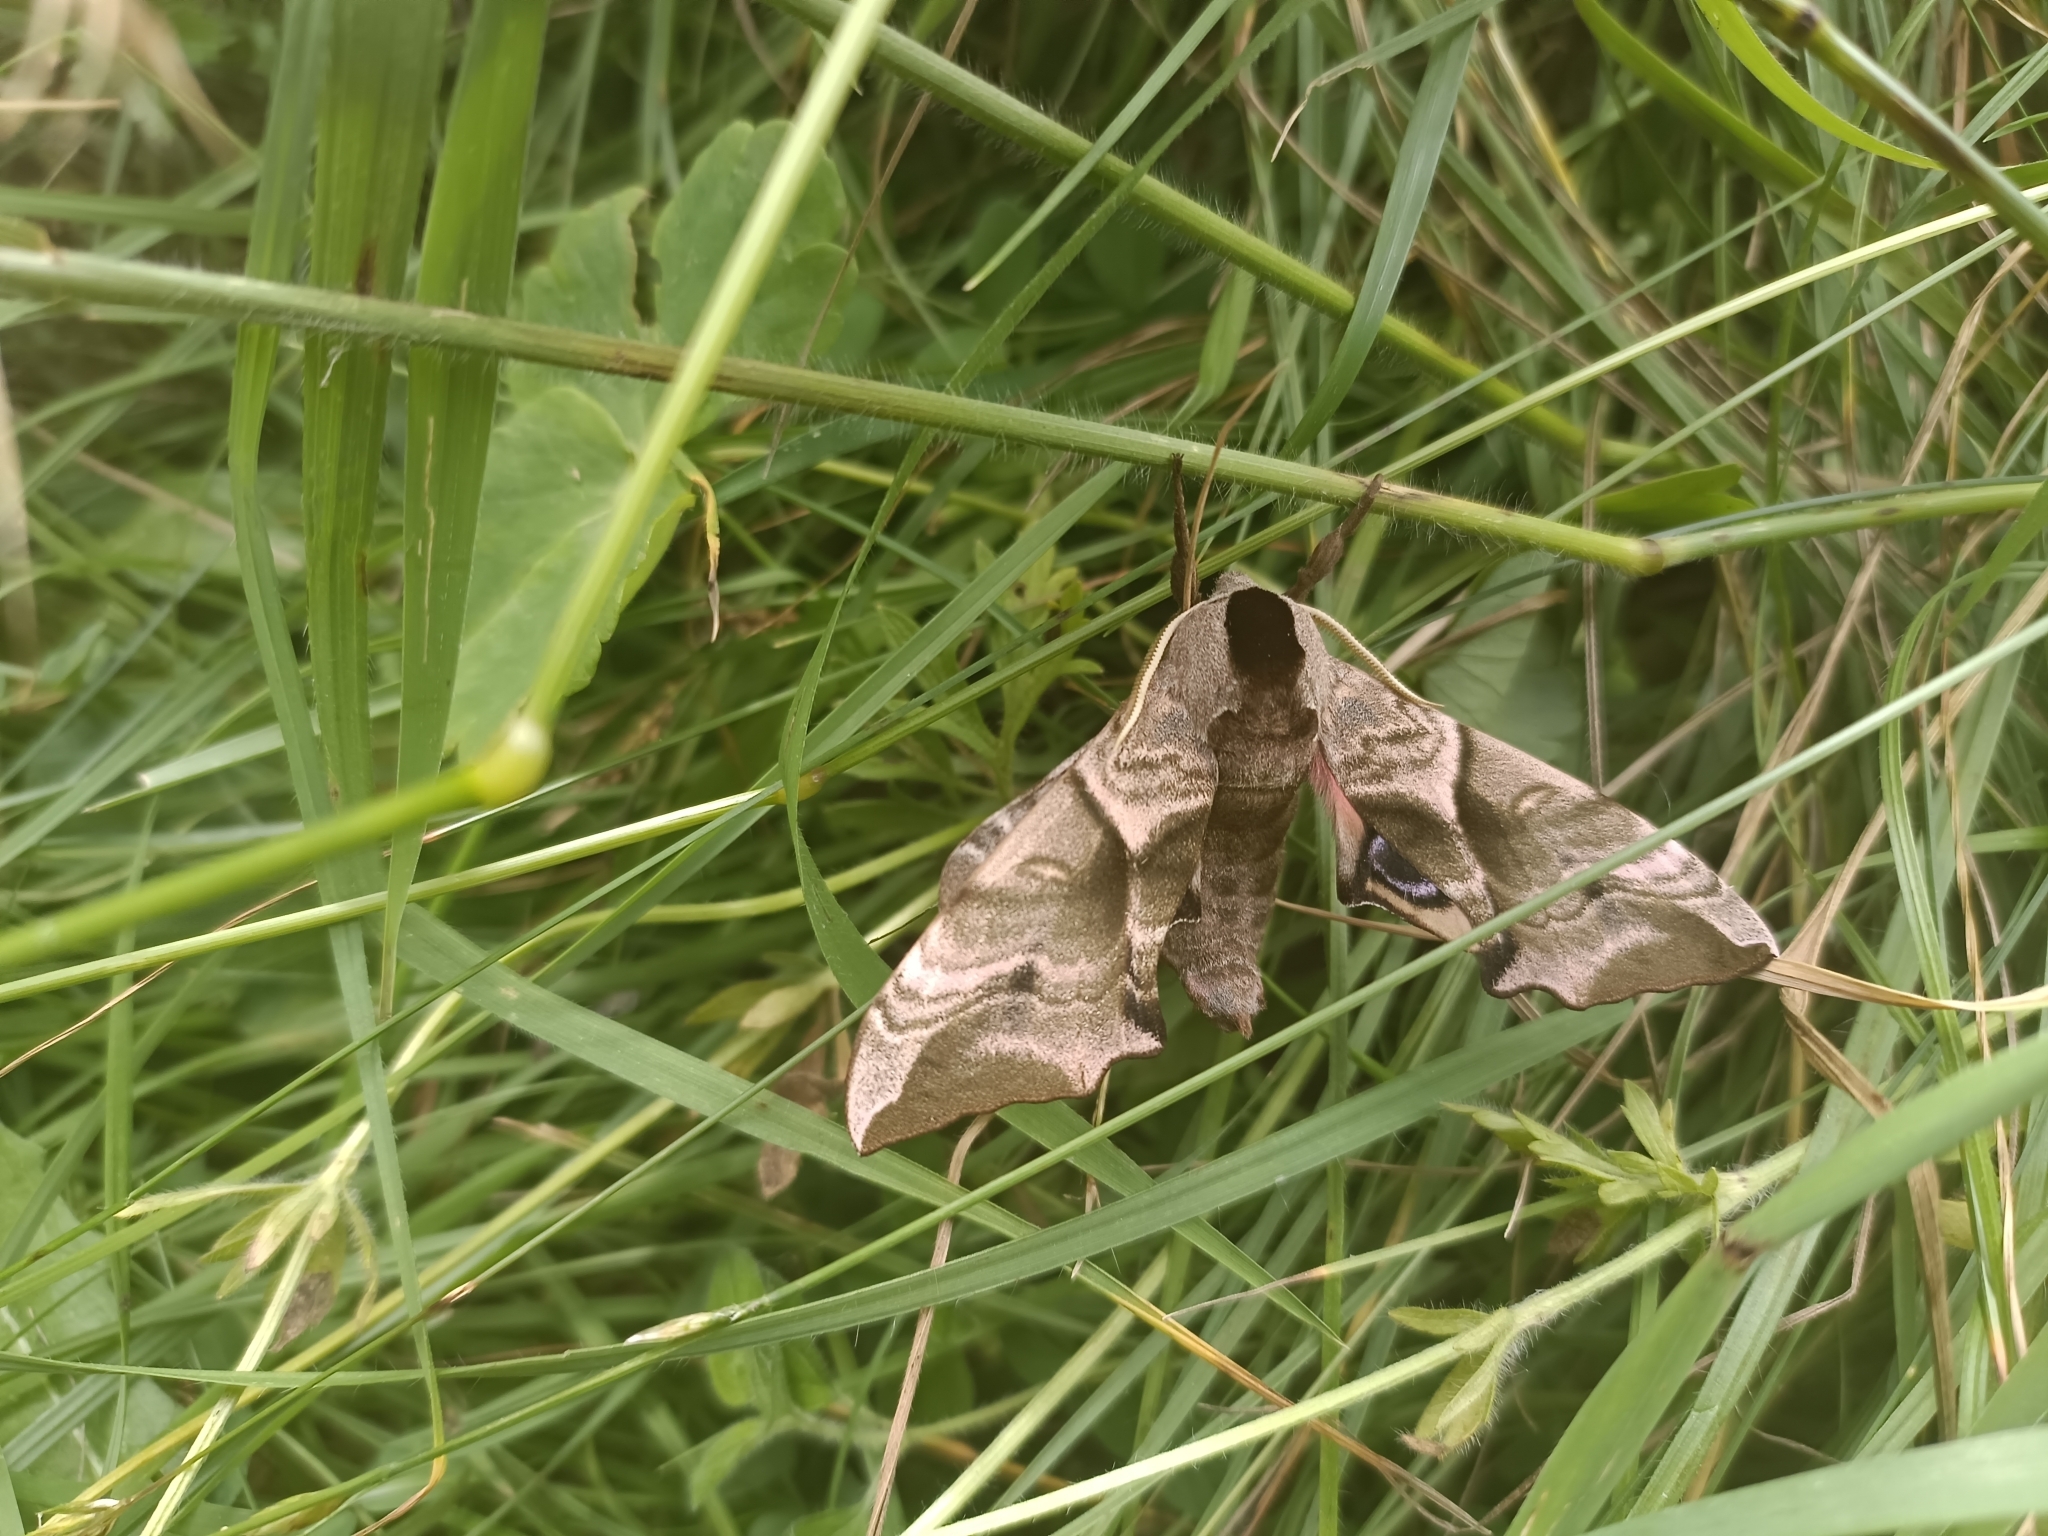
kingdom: Animalia
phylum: Arthropoda
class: Insecta
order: Lepidoptera
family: Sphingidae
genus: Smerinthus
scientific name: Smerinthus ocellata
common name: Eyed hawk-moth
